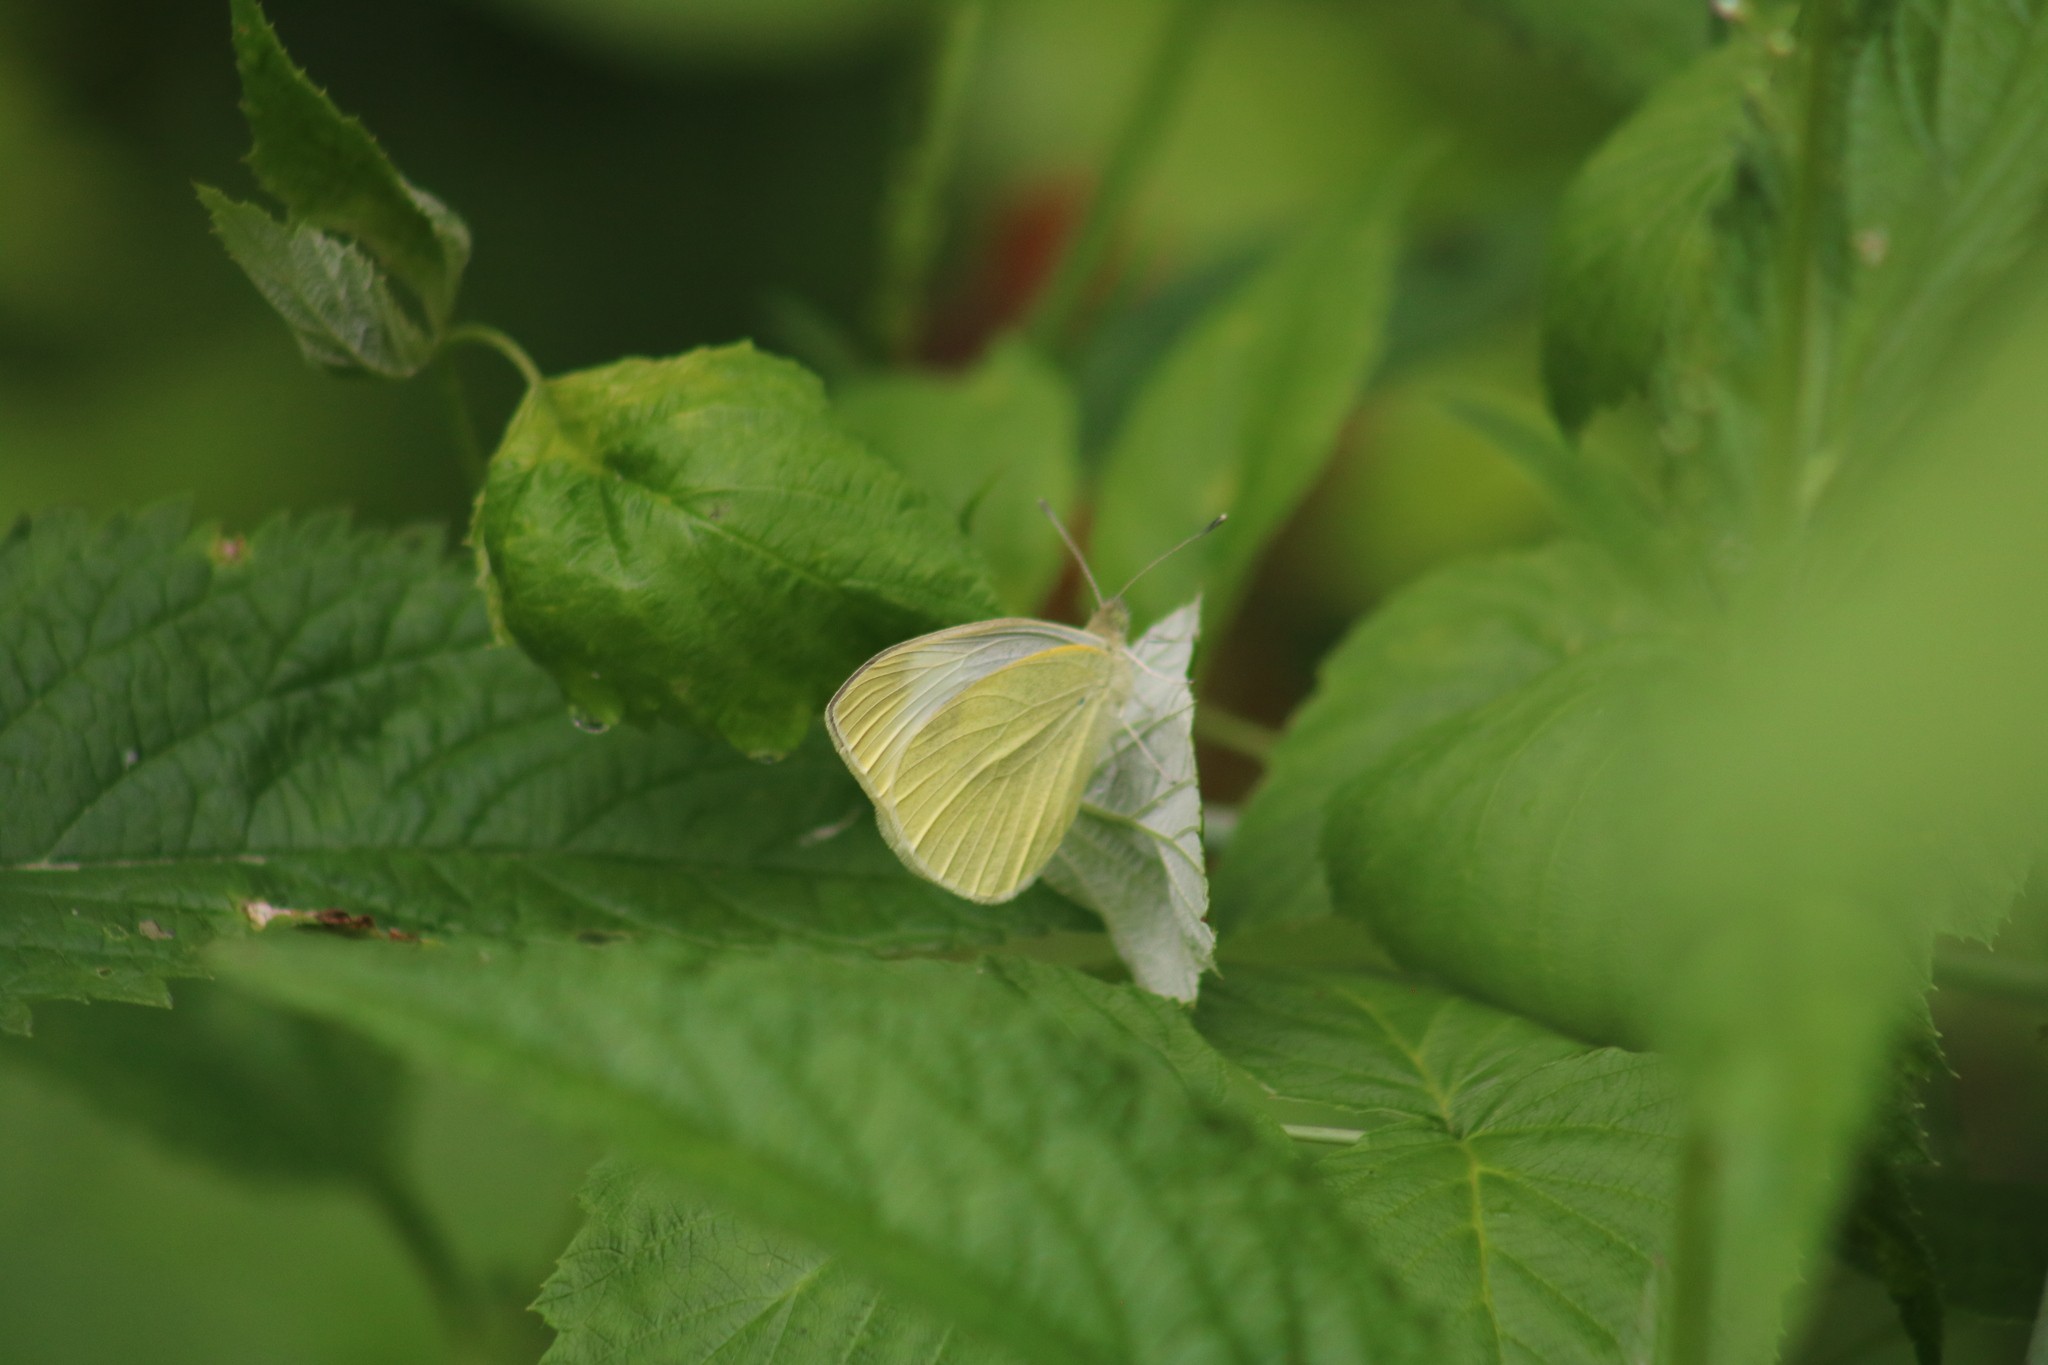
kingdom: Animalia
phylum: Arthropoda
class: Insecta
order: Lepidoptera
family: Pieridae
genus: Pieris
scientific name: Pieris rapae
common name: Small white
